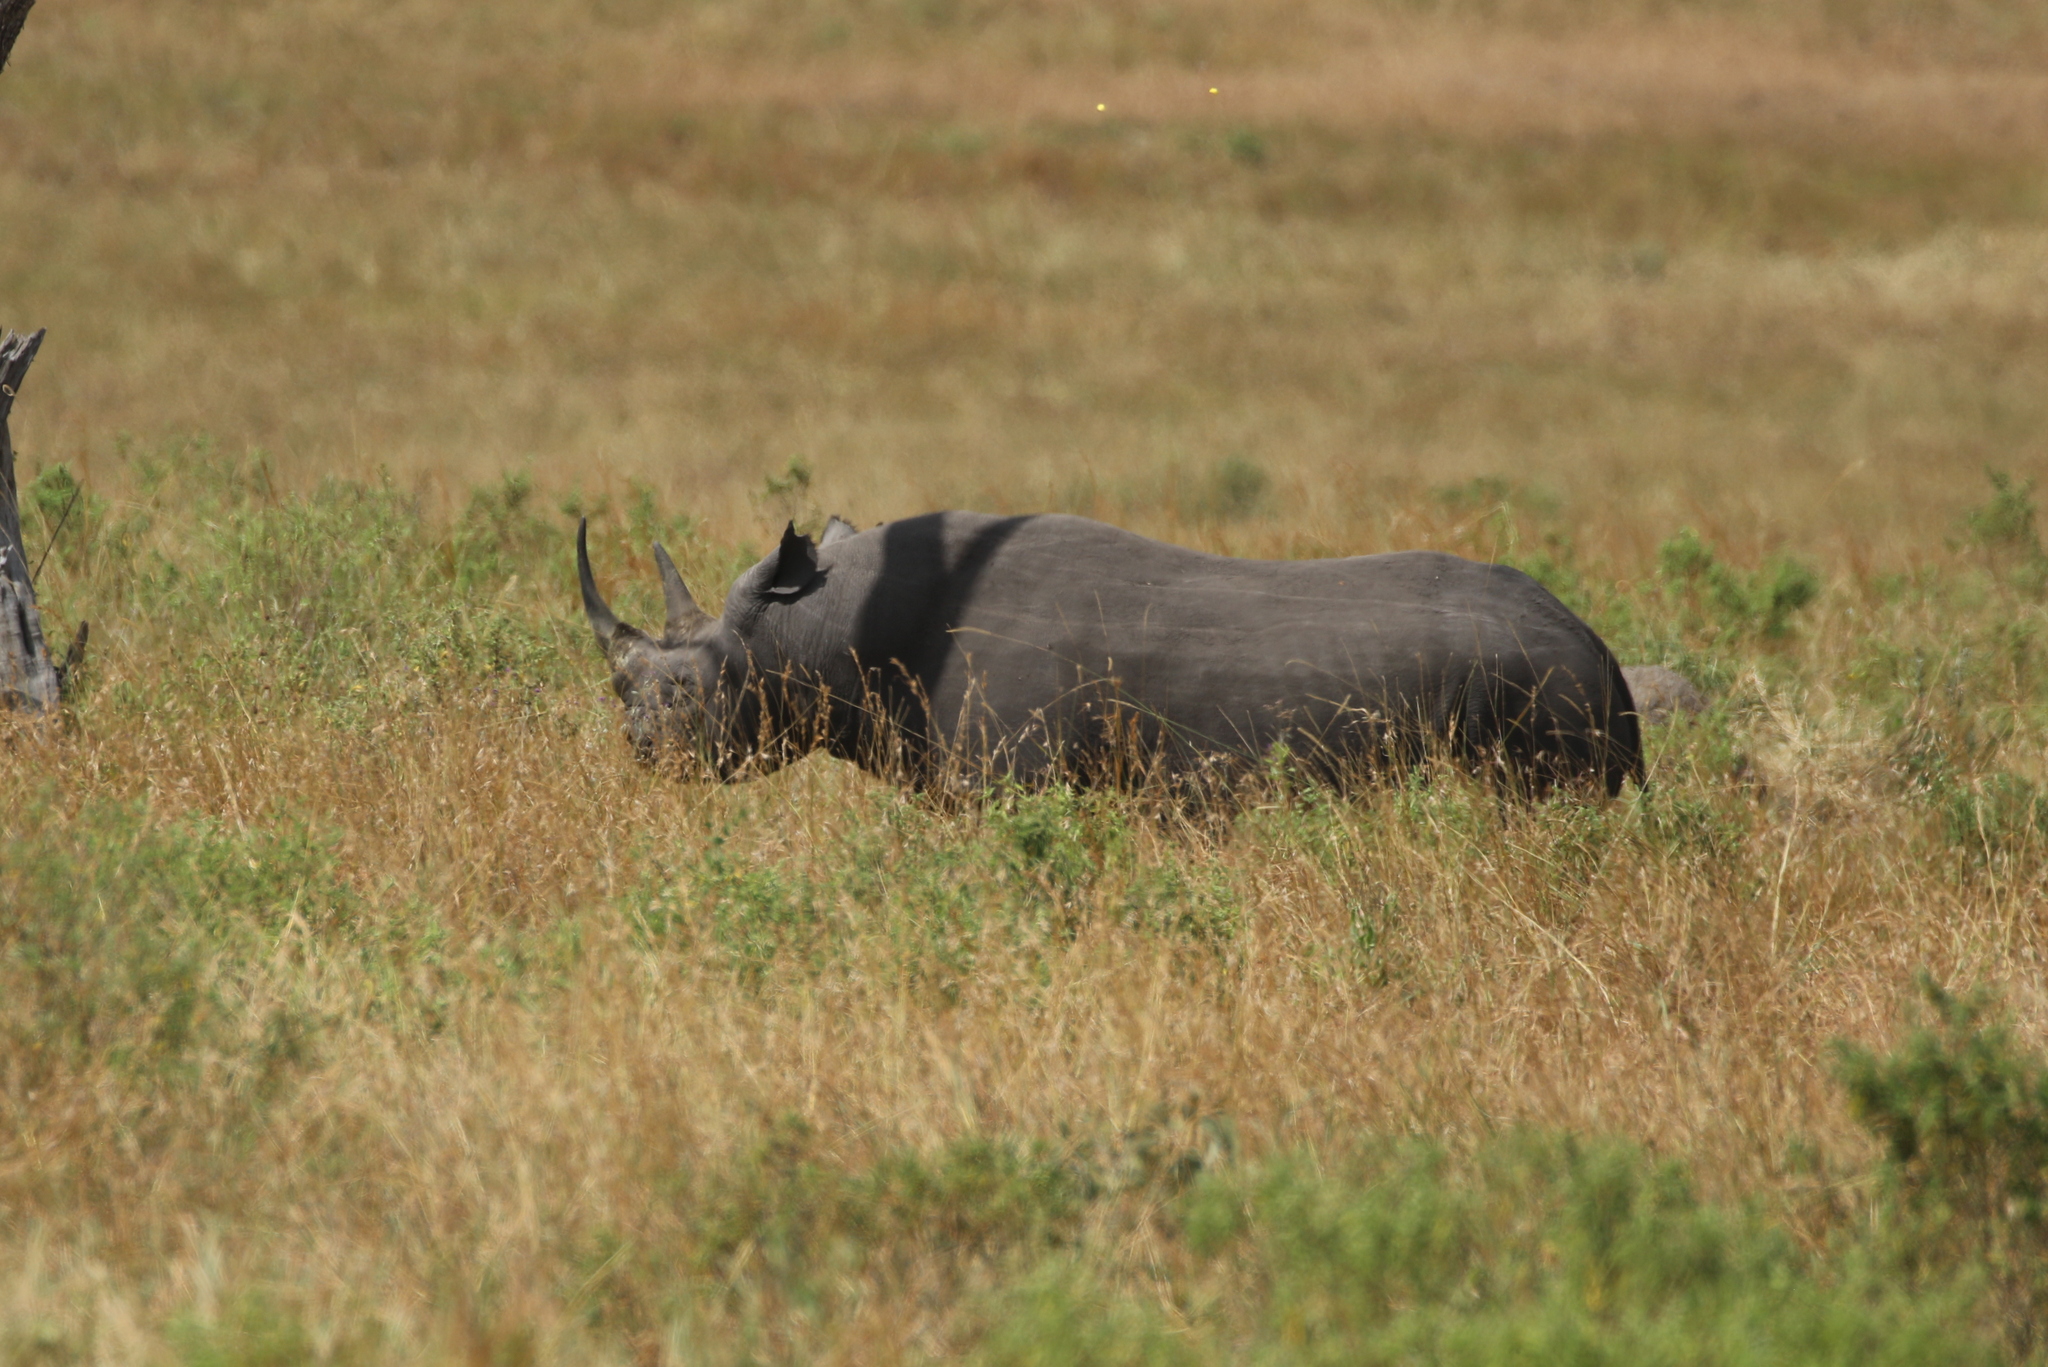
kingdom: Animalia
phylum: Chordata
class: Mammalia
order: Perissodactyla
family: Rhinocerotidae
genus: Diceros
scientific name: Diceros bicornis
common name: Black rhinoceros
